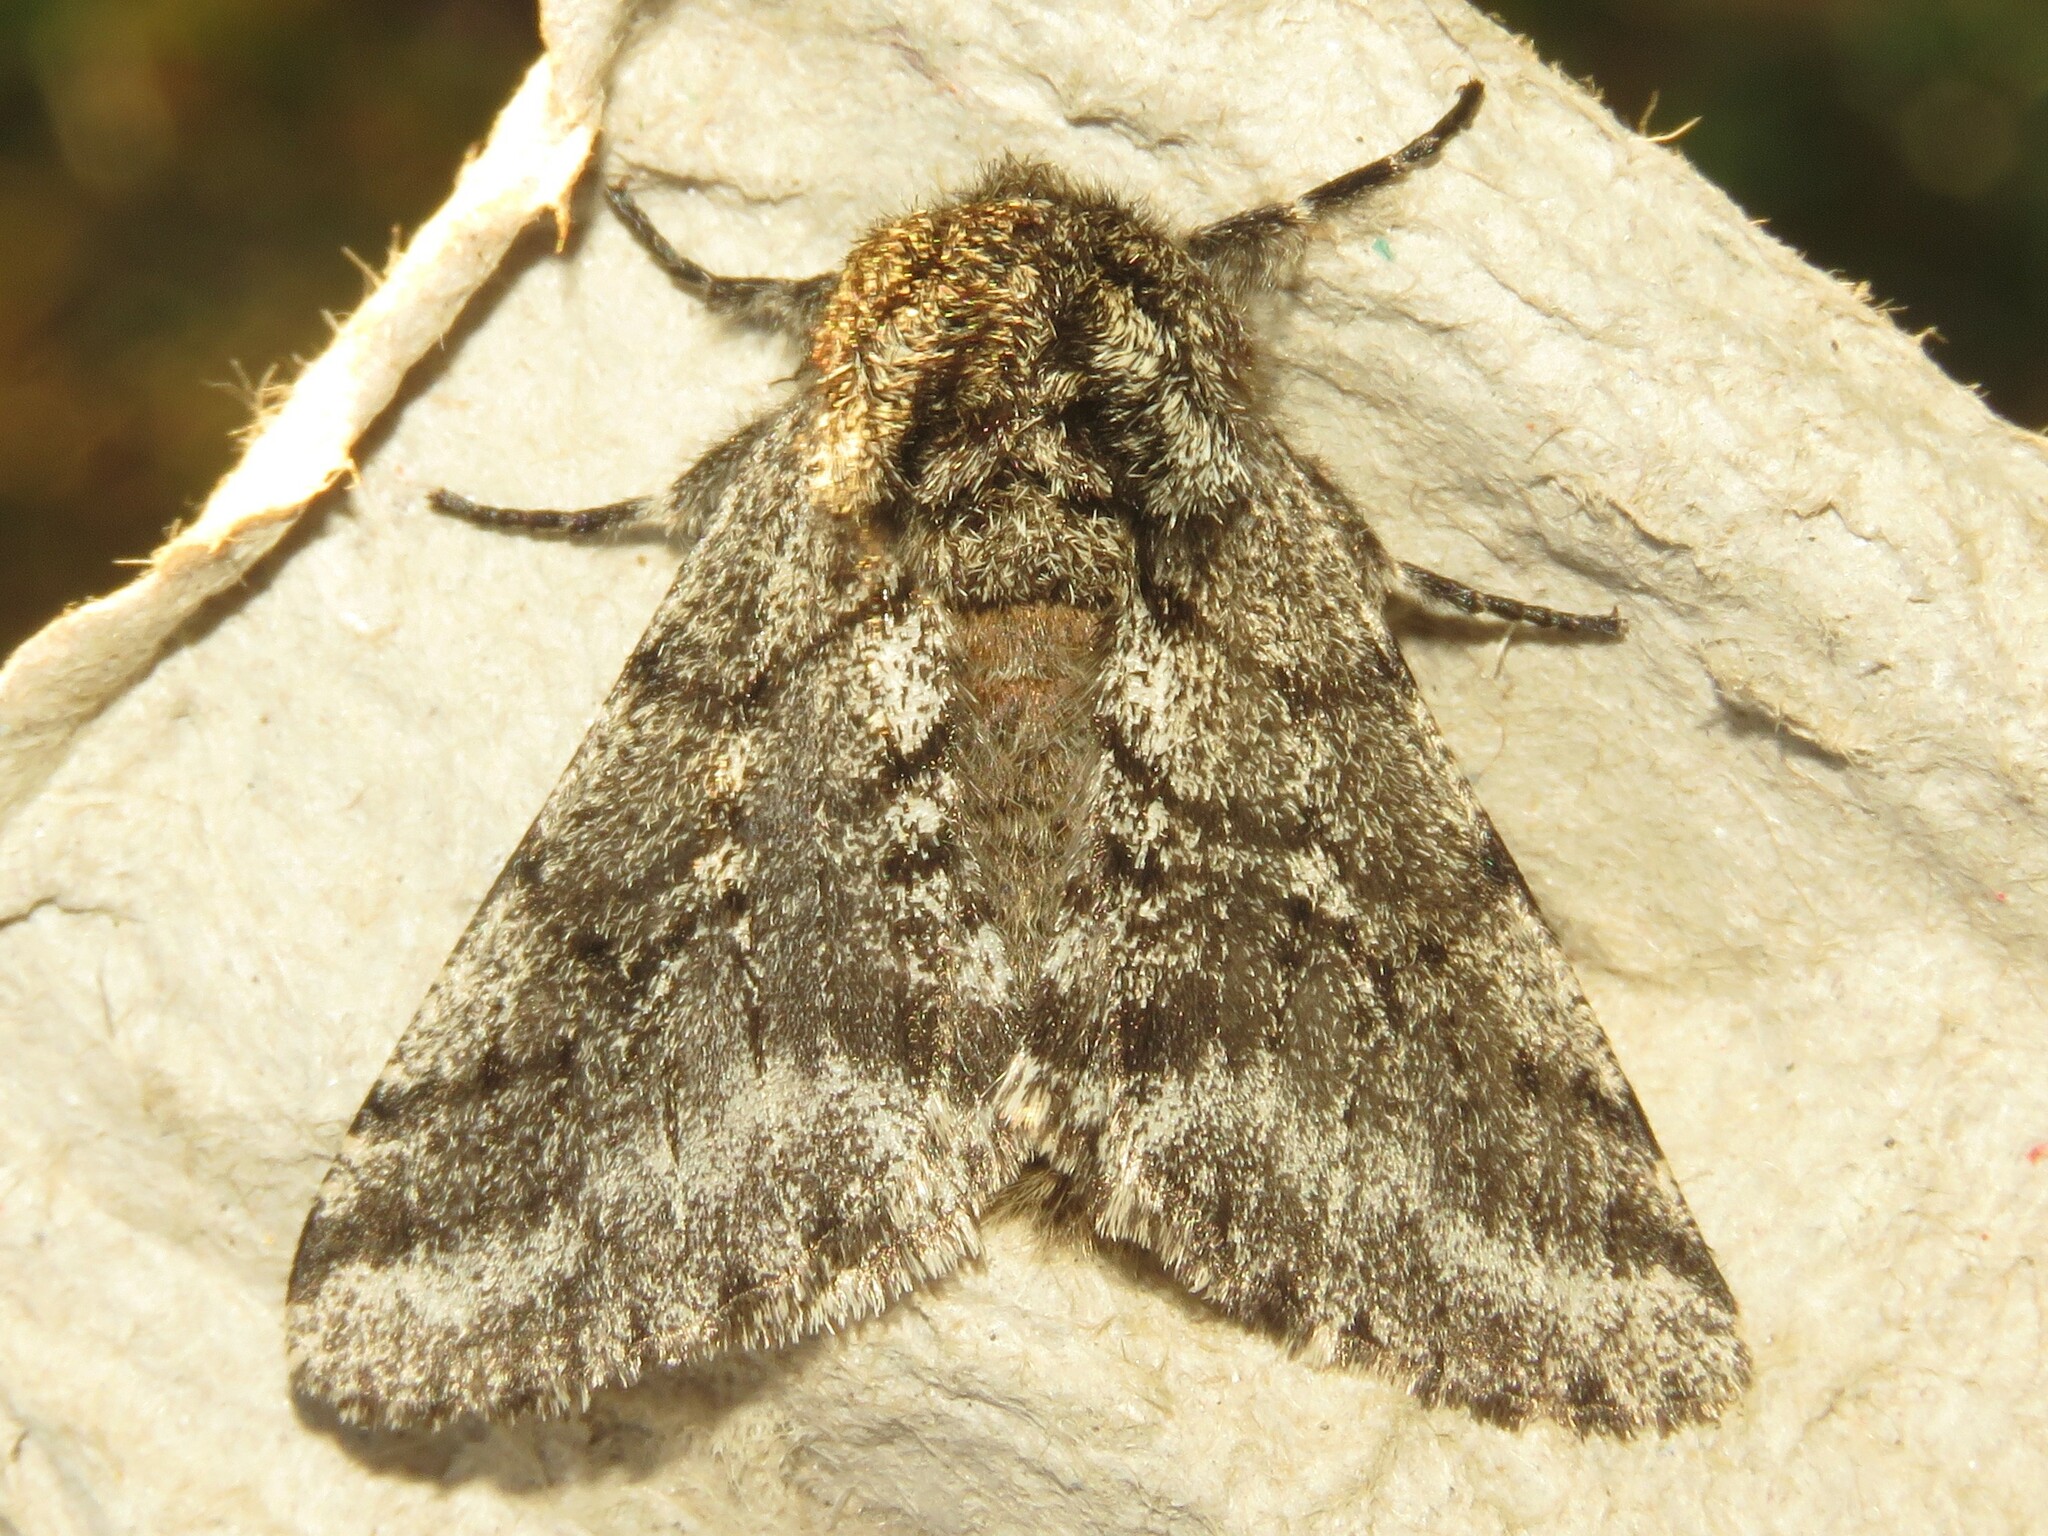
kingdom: Animalia
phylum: Arthropoda
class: Insecta
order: Lepidoptera
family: Geometridae
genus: Lycia
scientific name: Lycia ursaria
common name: Stout spanworm
